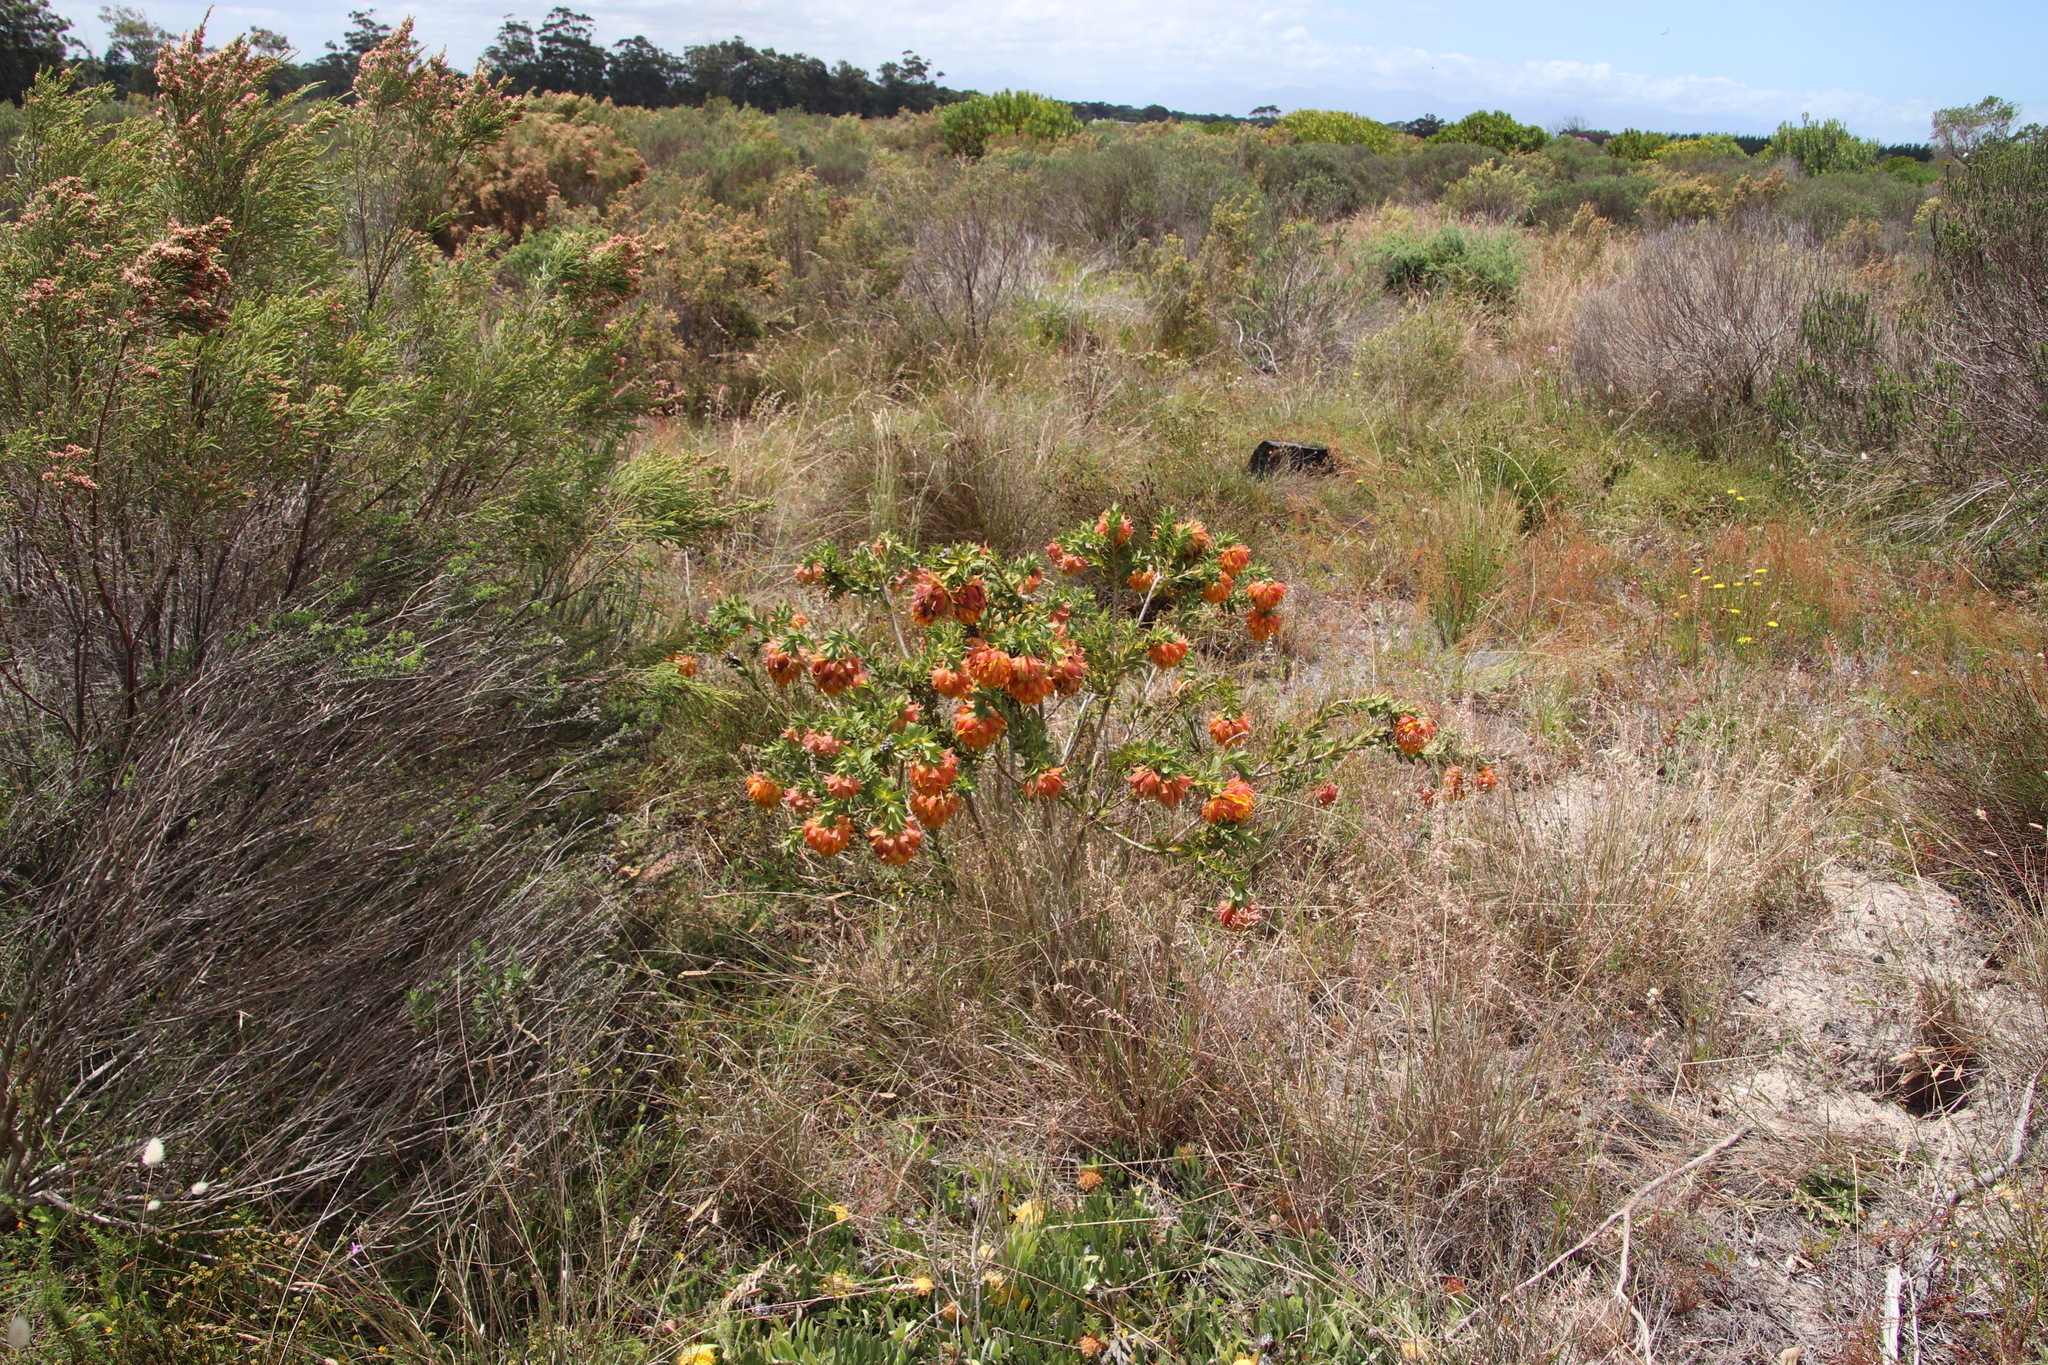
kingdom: Plantae
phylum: Tracheophyta
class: Magnoliopsida
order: Fabales
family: Fabaceae
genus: Liparia
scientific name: Liparia splendens
